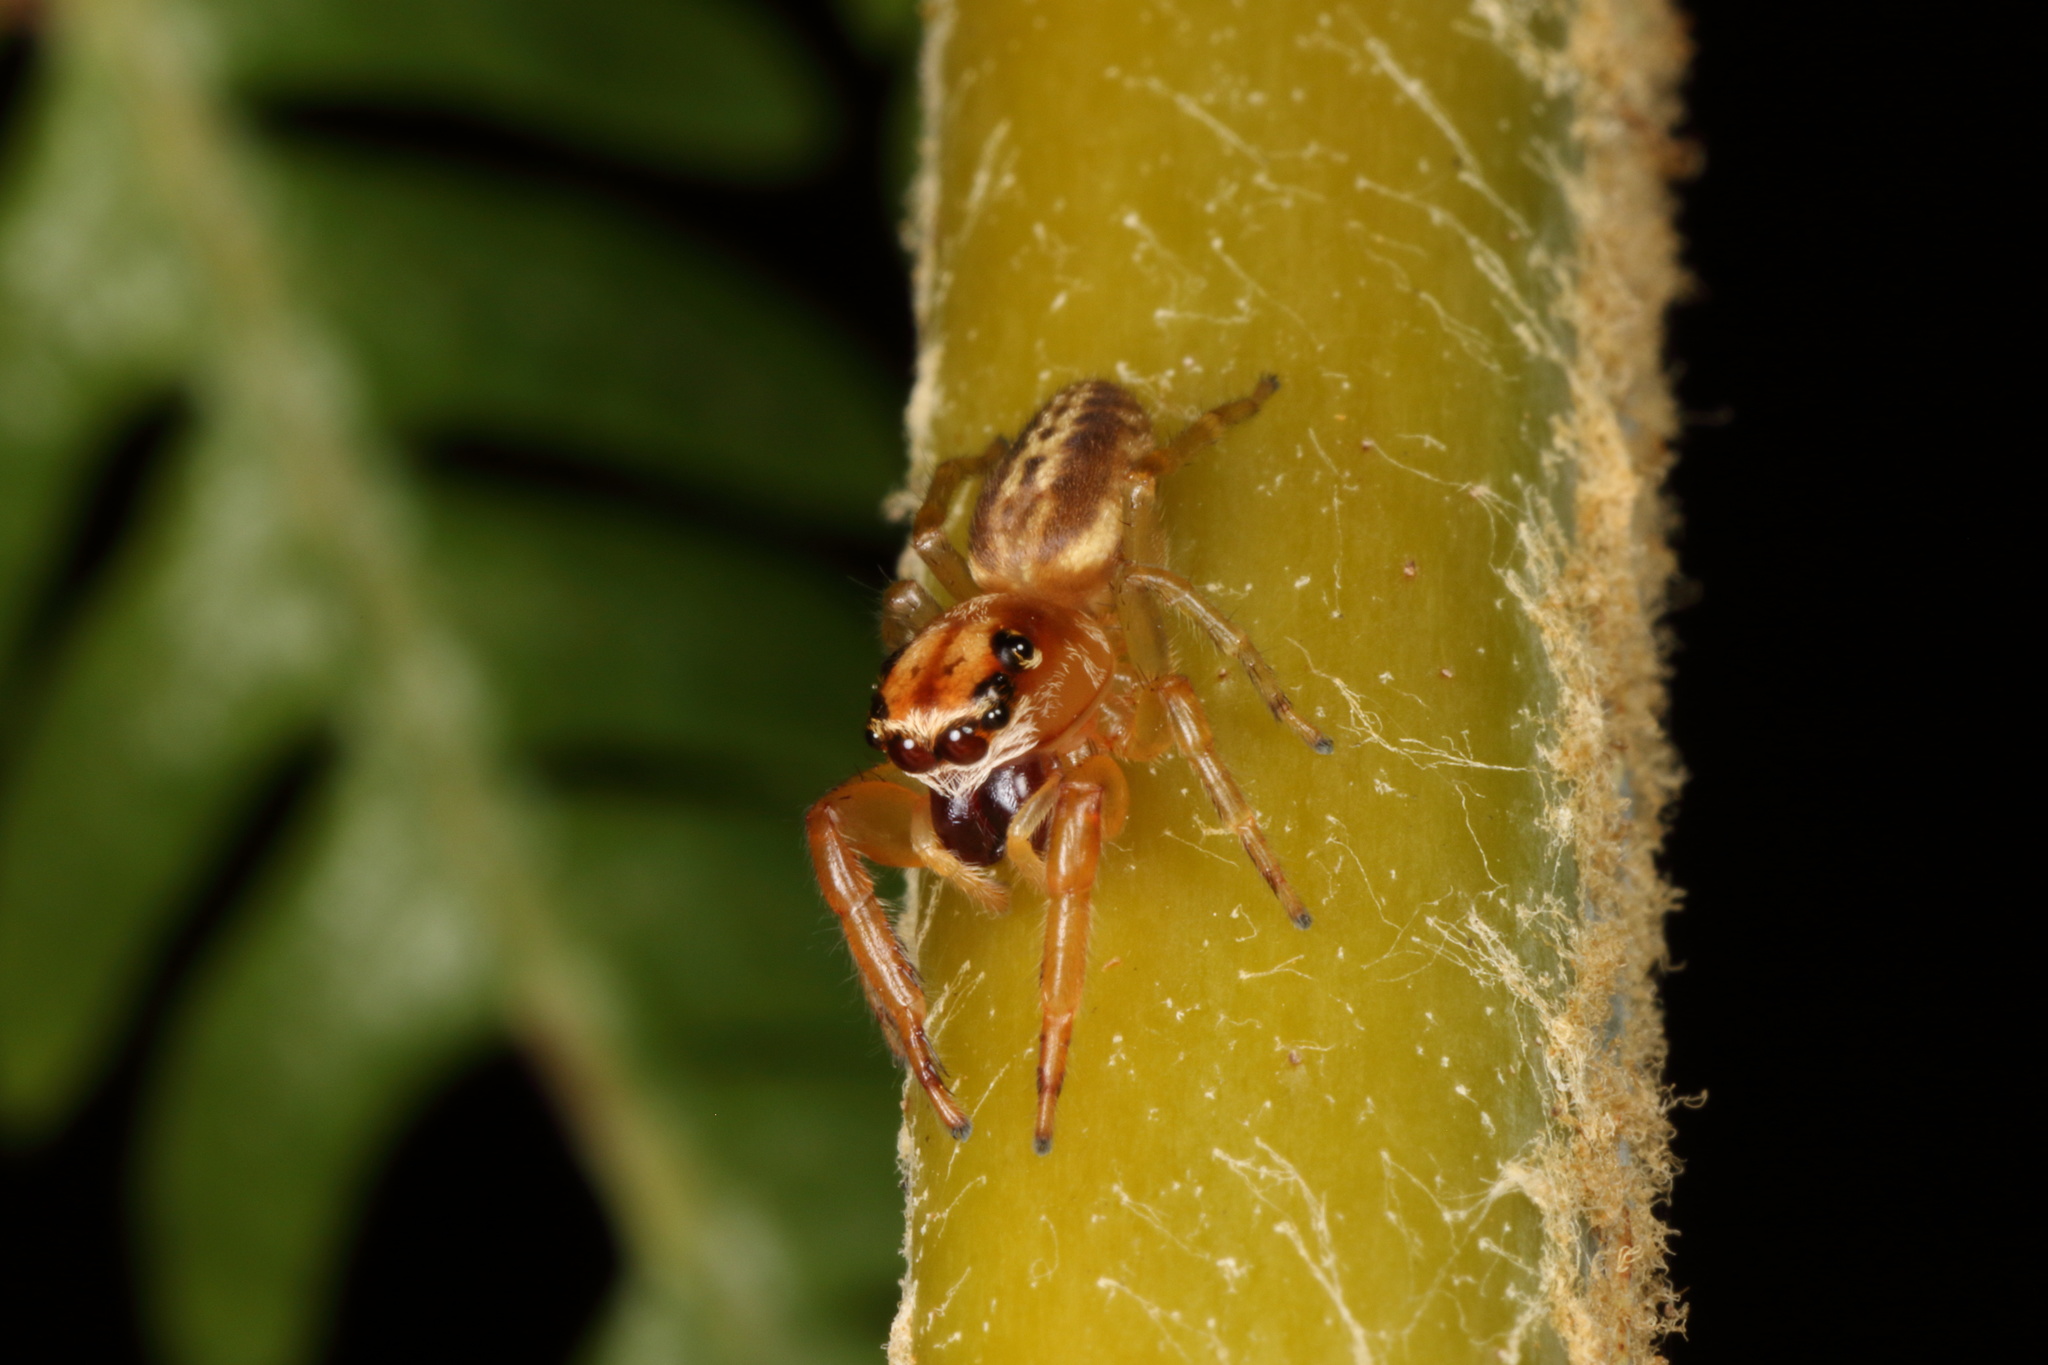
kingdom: Animalia
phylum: Arthropoda
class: Arachnida
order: Araneae
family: Salticidae
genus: Trite
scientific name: Trite mustilina
